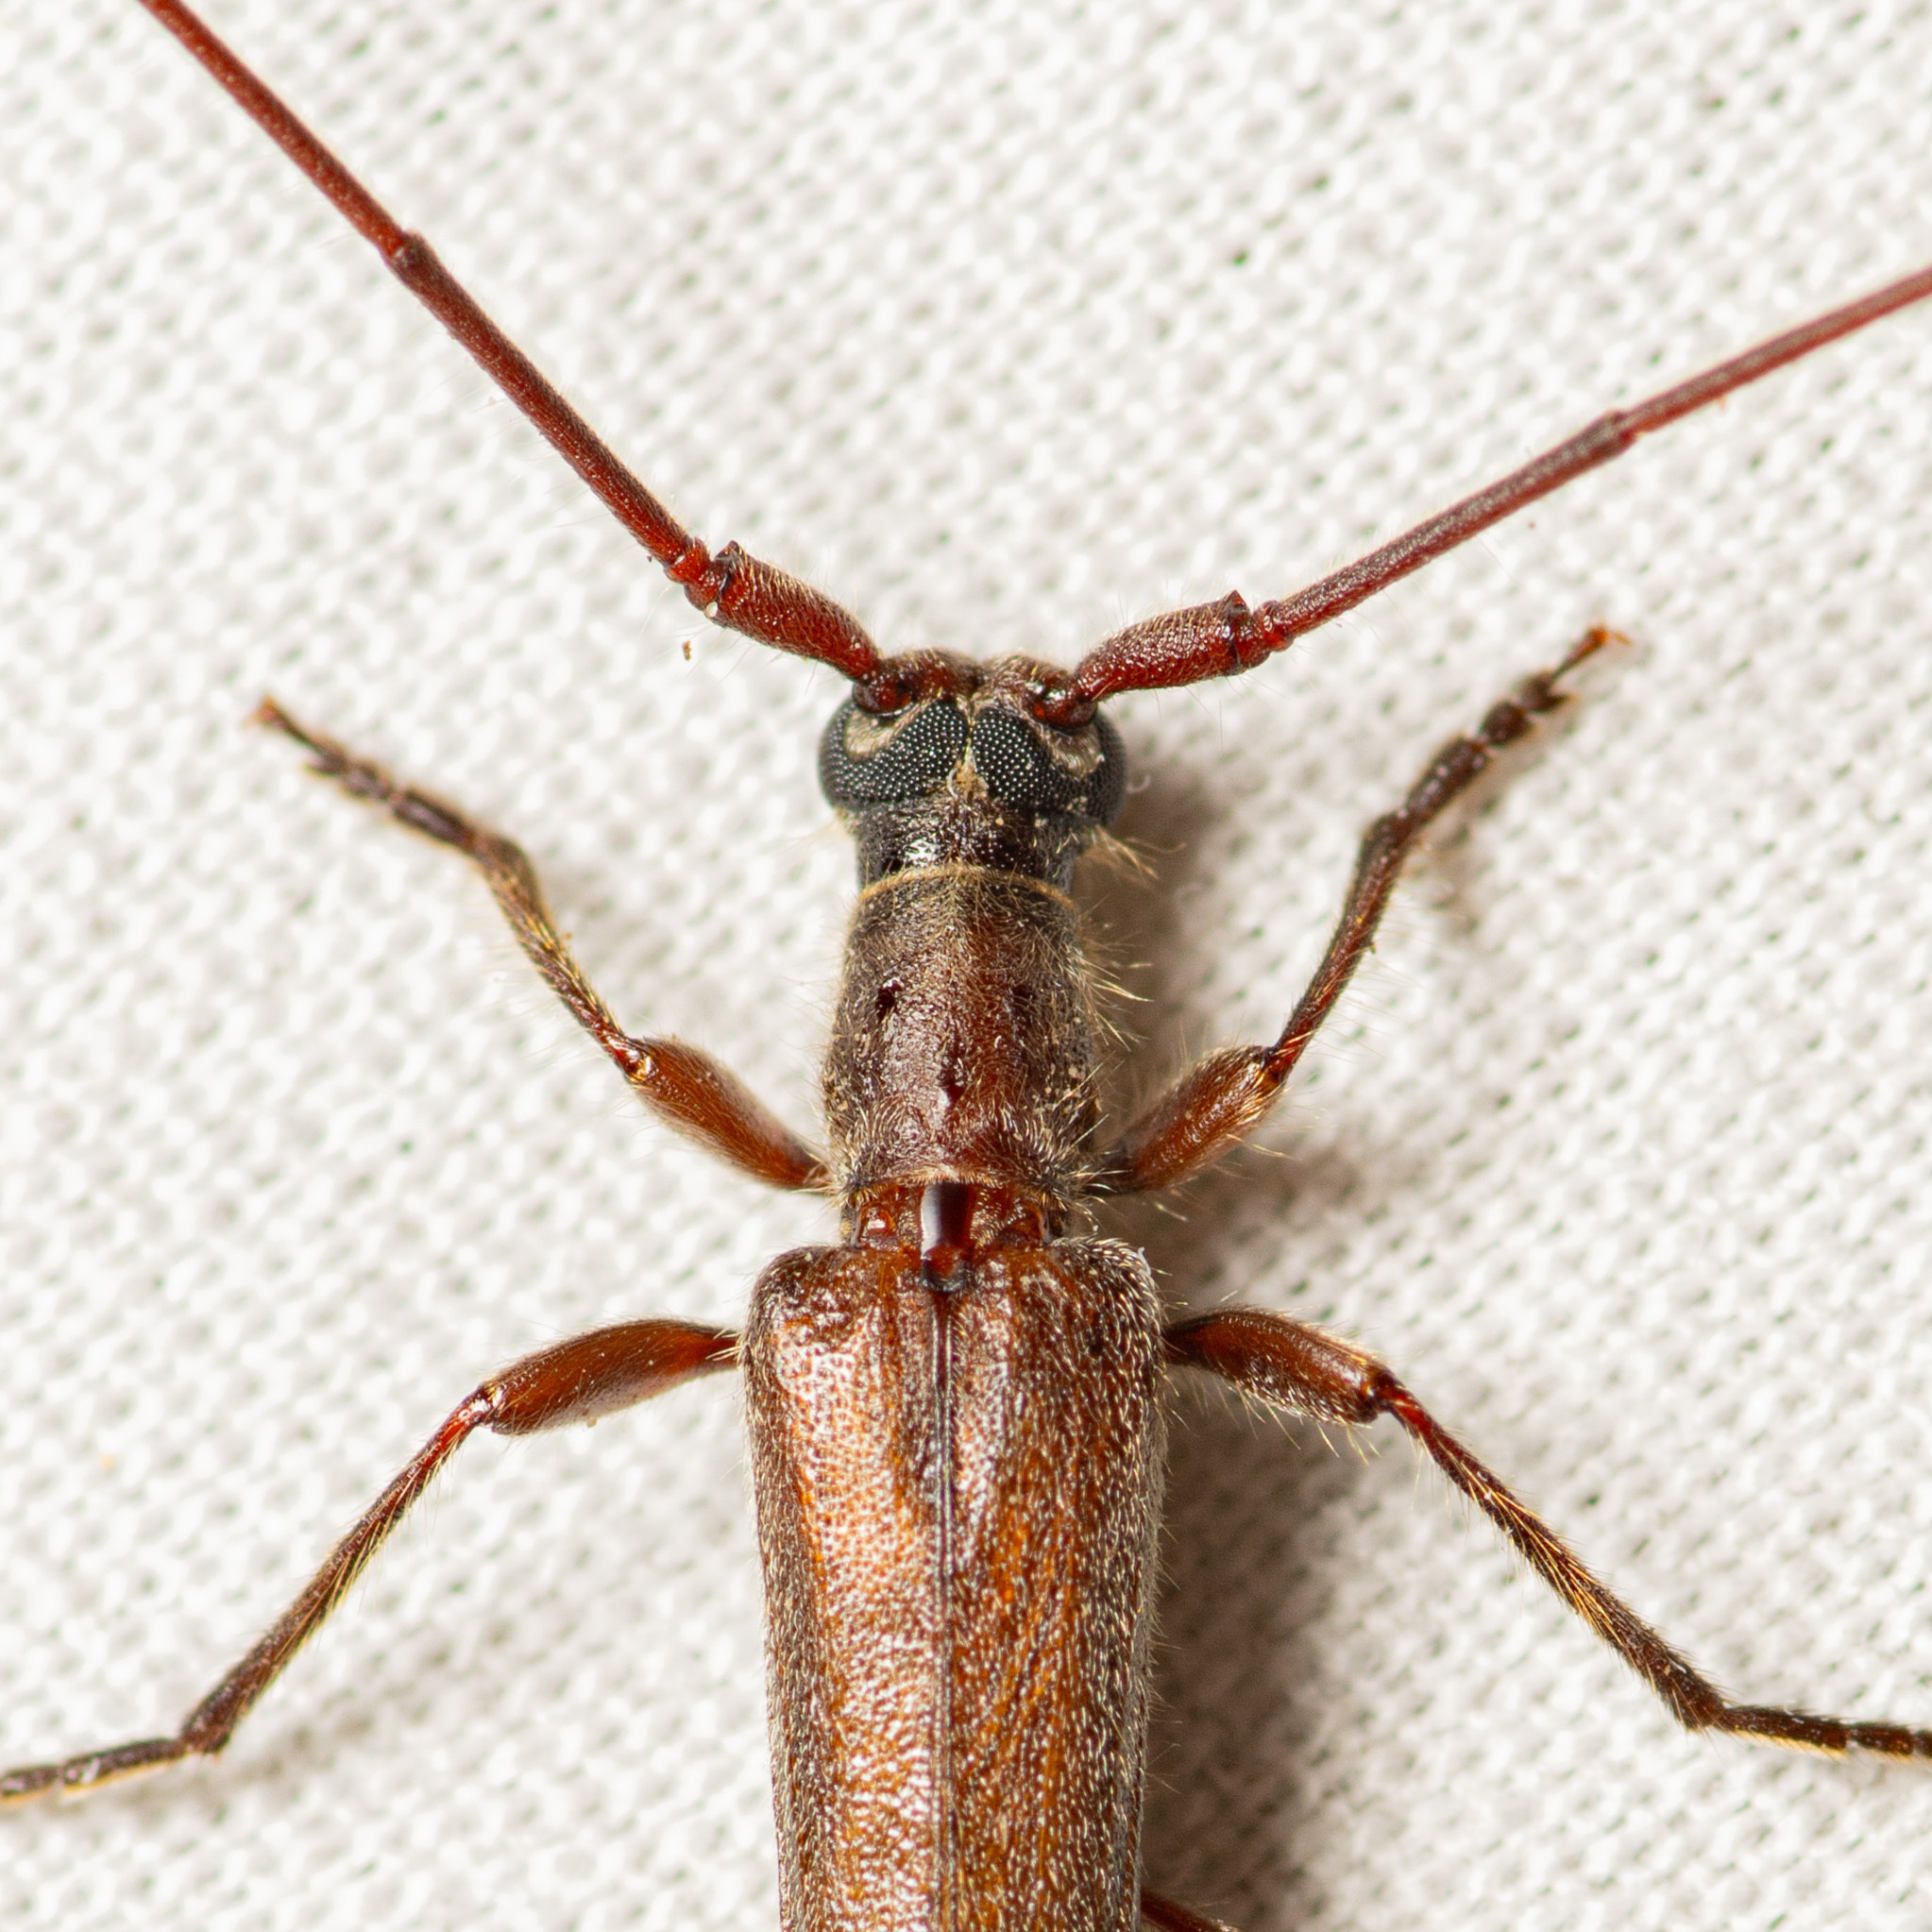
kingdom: Animalia
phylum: Arthropoda
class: Insecta
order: Coleoptera
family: Cerambycidae
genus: Styloxus
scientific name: Styloxus fulleri
